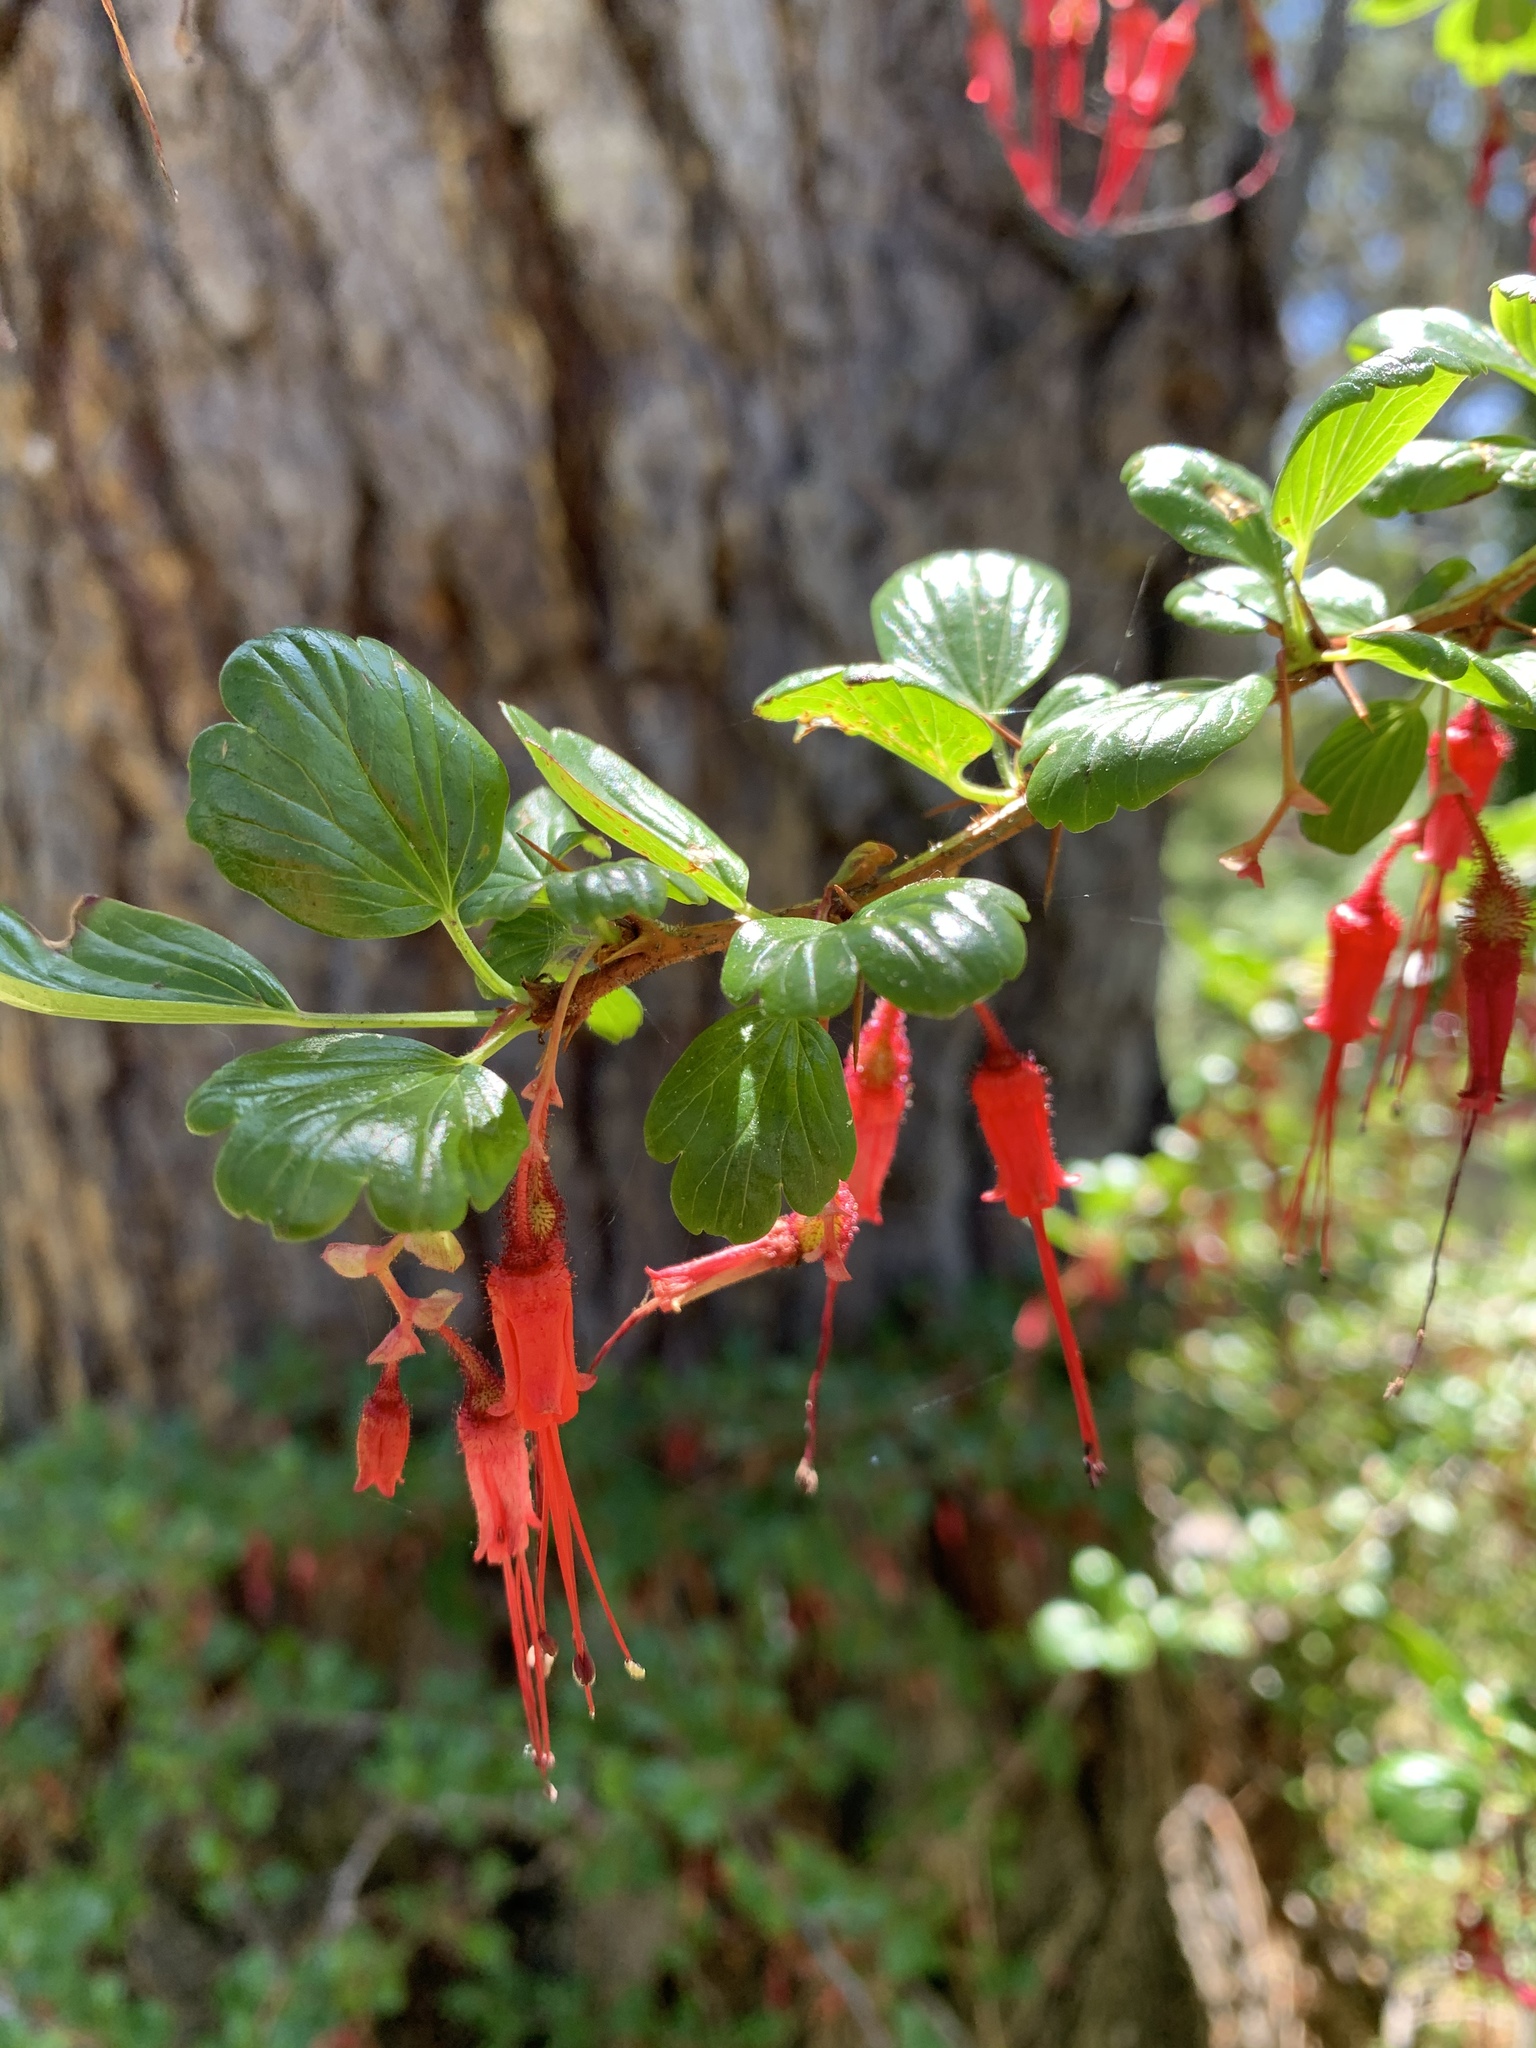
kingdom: Plantae
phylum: Tracheophyta
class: Magnoliopsida
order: Saxifragales
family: Grossulariaceae
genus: Ribes
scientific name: Ribes speciosum
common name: Fuchsia-flower gooseberry
